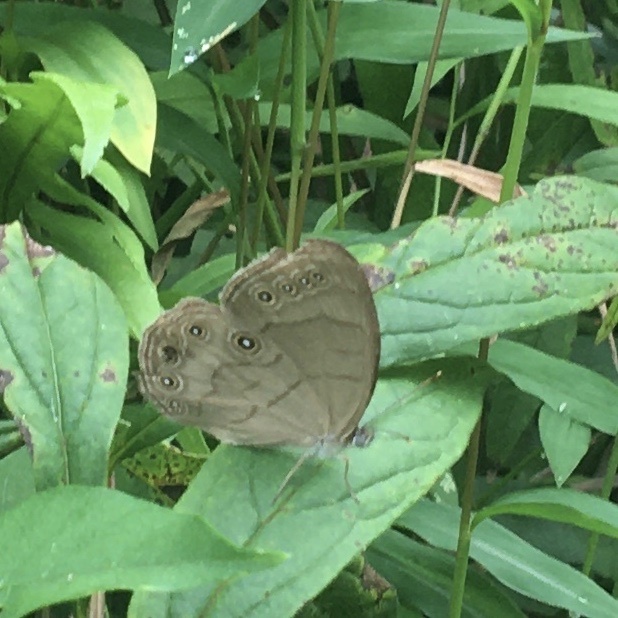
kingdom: Animalia
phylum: Arthropoda
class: Insecta
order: Lepidoptera
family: Nymphalidae
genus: Lethe
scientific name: Lethe eurydice
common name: Eyed brown
